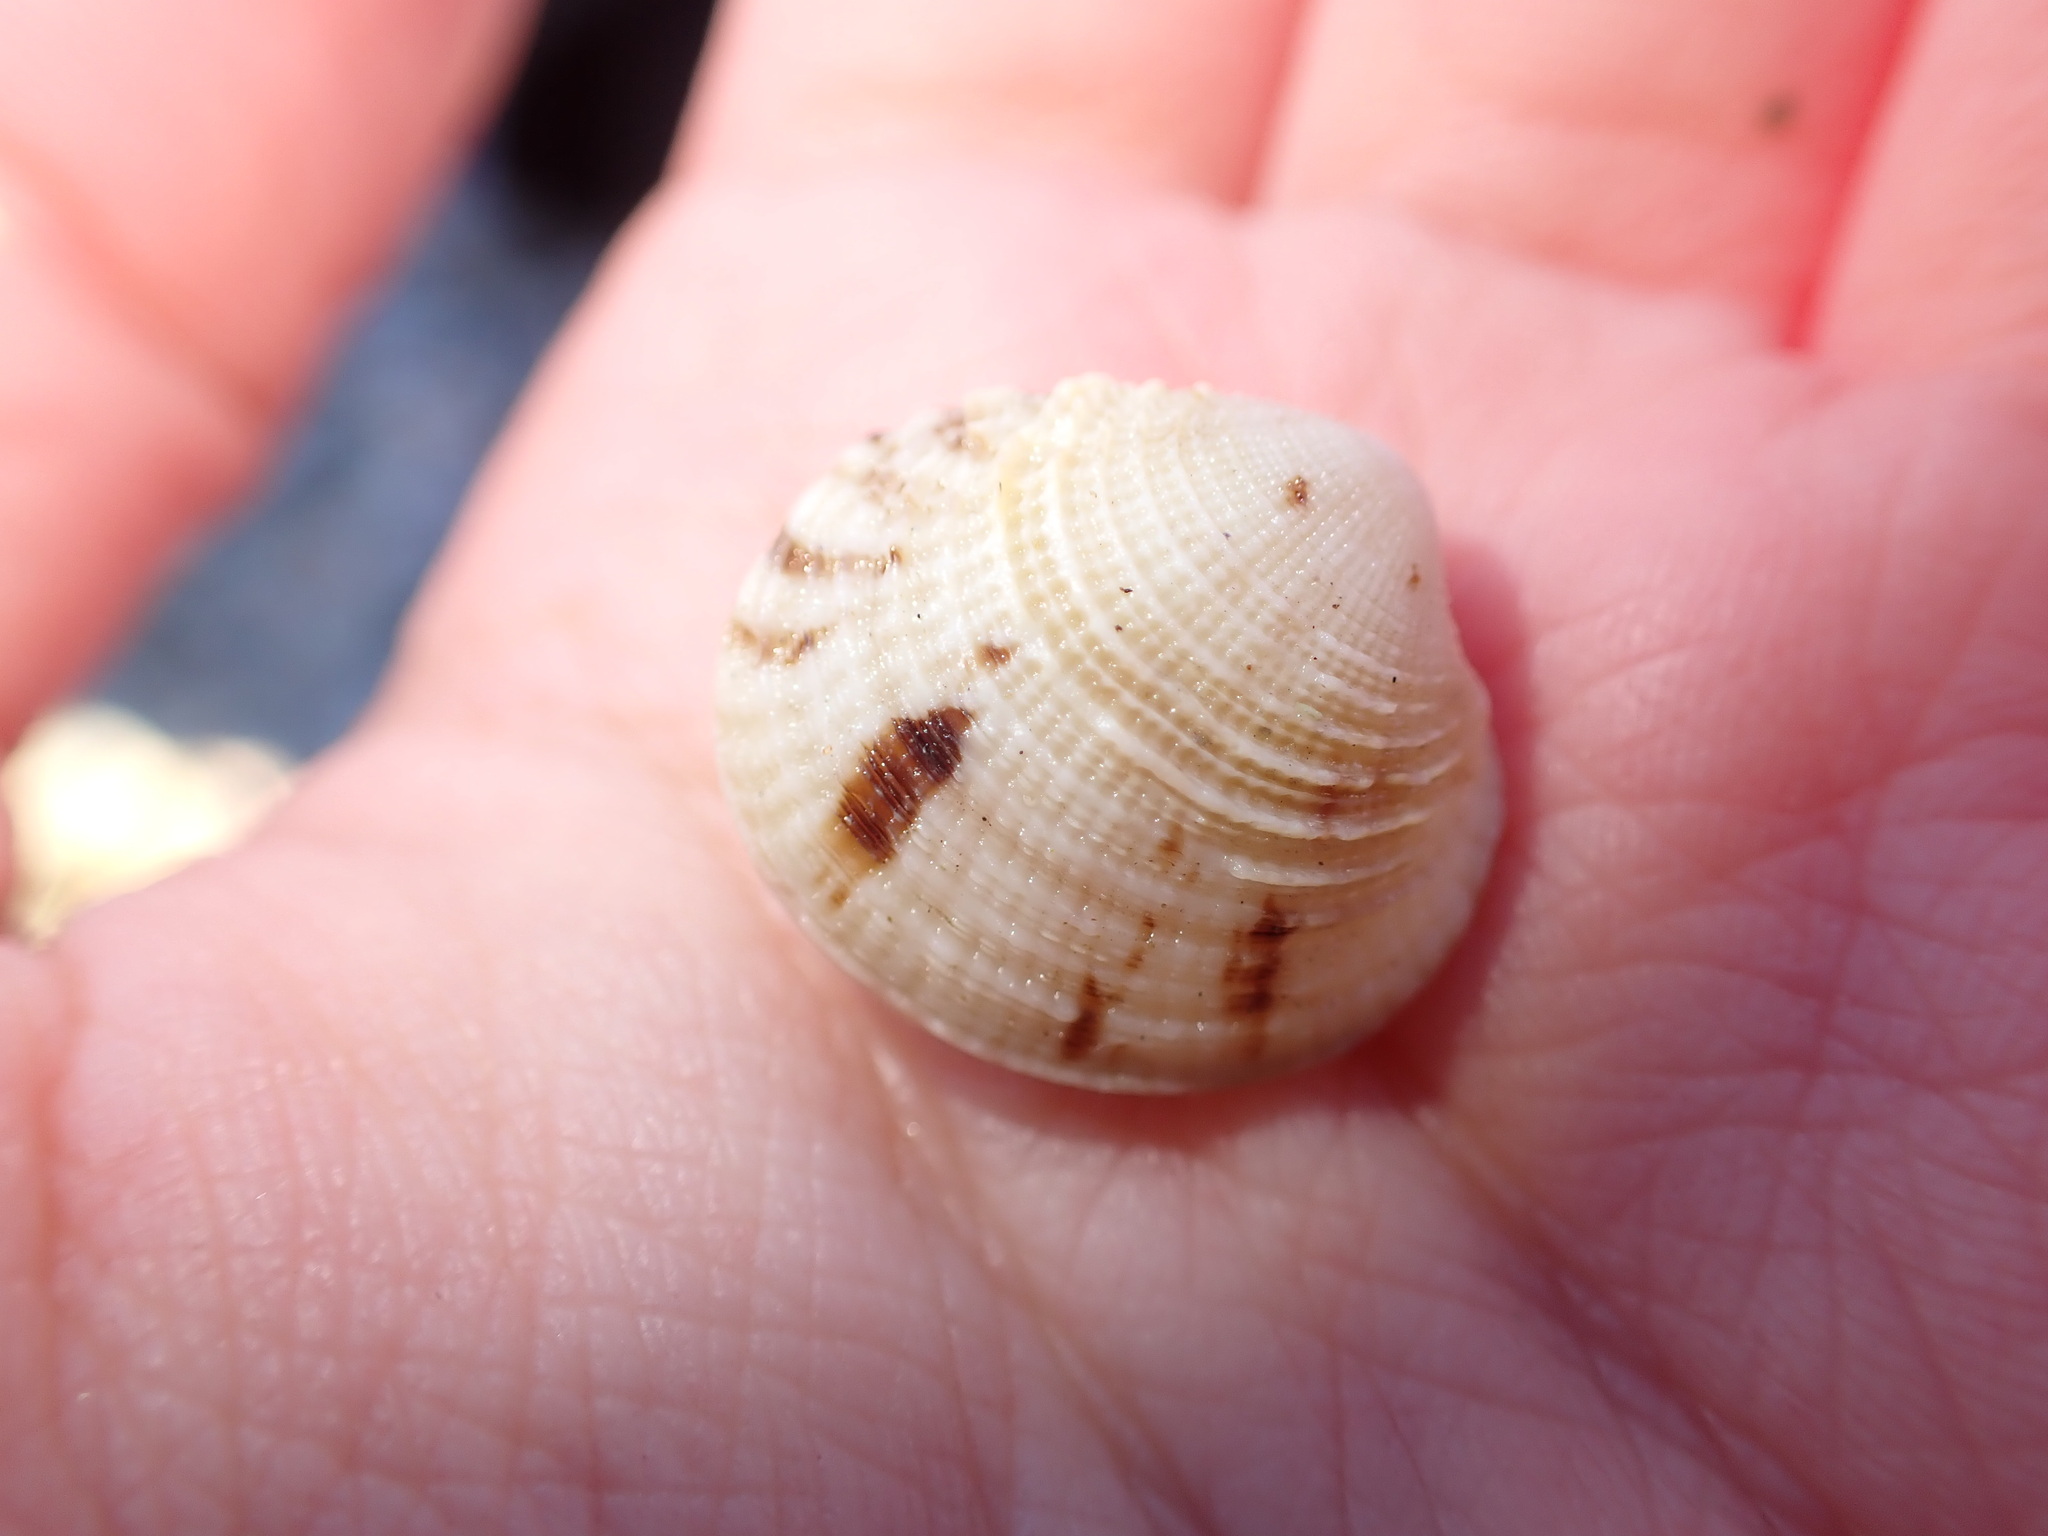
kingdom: Animalia
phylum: Mollusca
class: Bivalvia
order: Venerida
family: Veneridae
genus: Venus
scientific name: Venus verrucosa
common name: Warty venus
